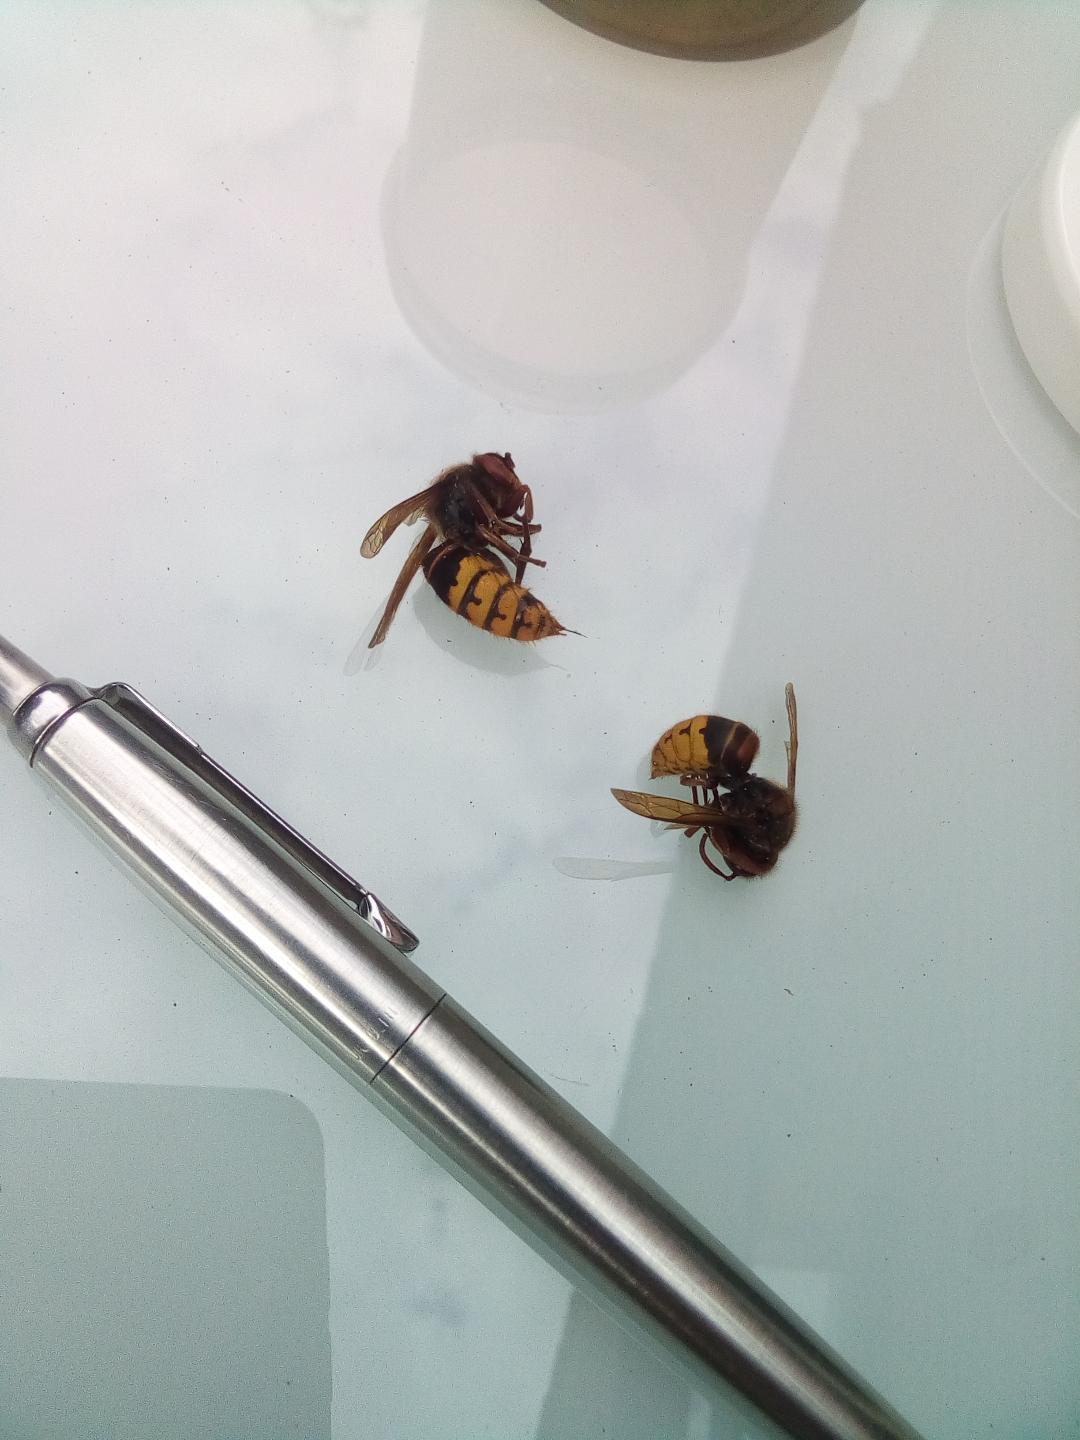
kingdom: Animalia
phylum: Arthropoda
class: Insecta
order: Hymenoptera
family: Vespidae
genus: Vespa
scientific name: Vespa crabro
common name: Hornet
